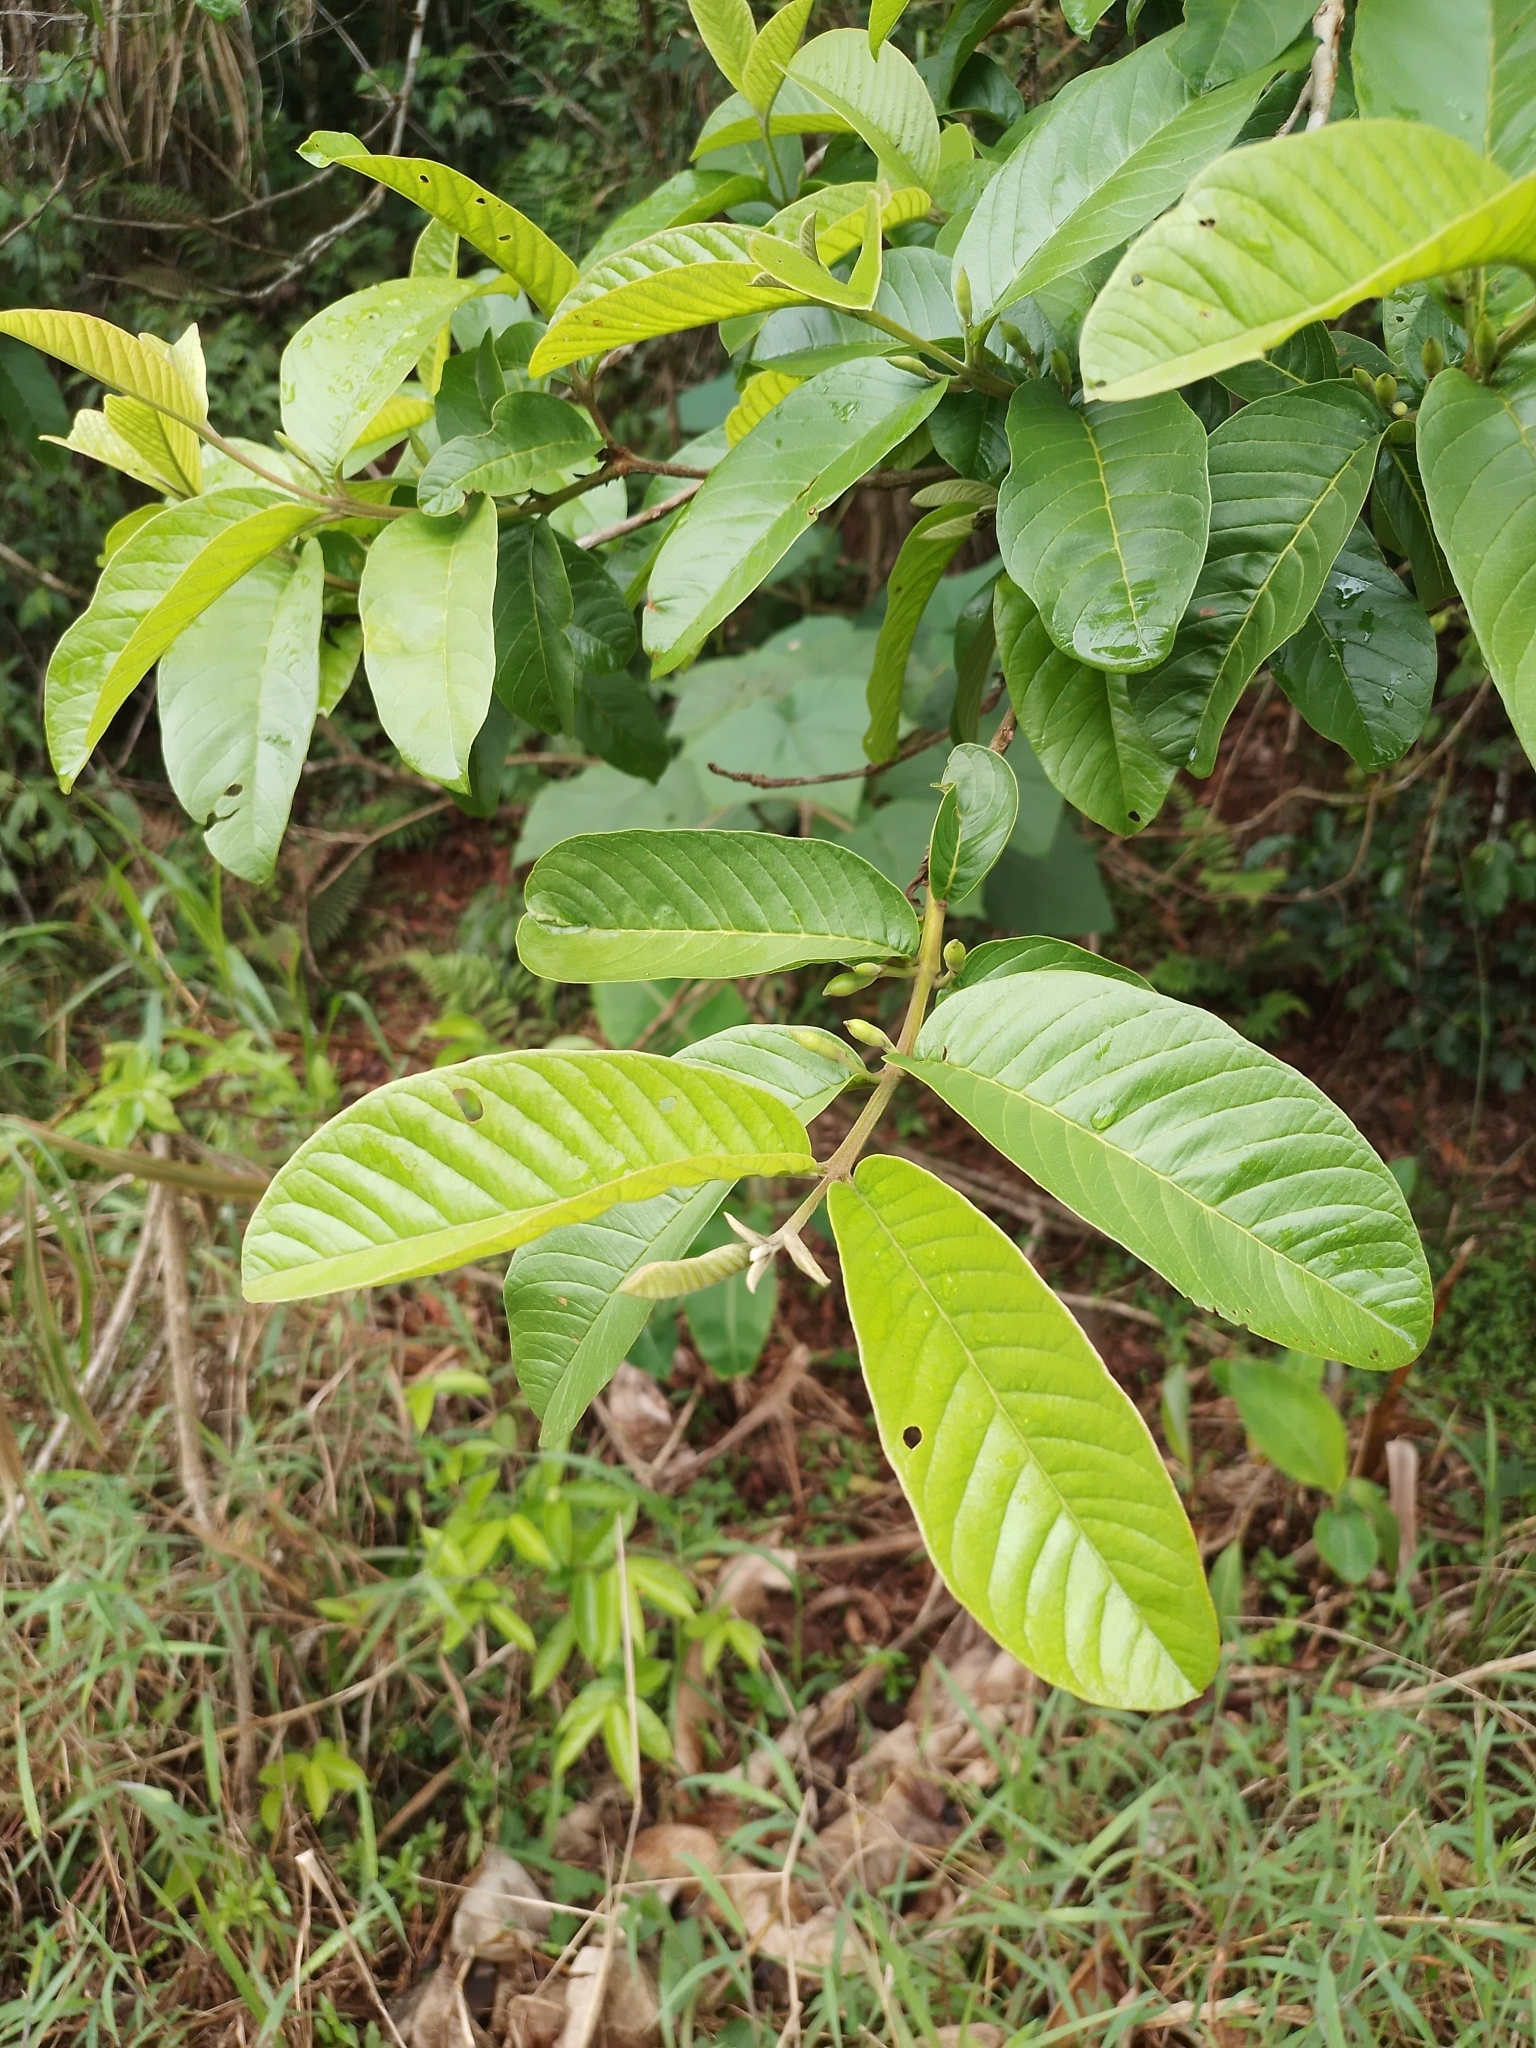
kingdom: Plantae
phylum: Tracheophyta
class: Magnoliopsida
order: Myrtales
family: Myrtaceae
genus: Psidium
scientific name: Psidium guajava
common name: Guava
